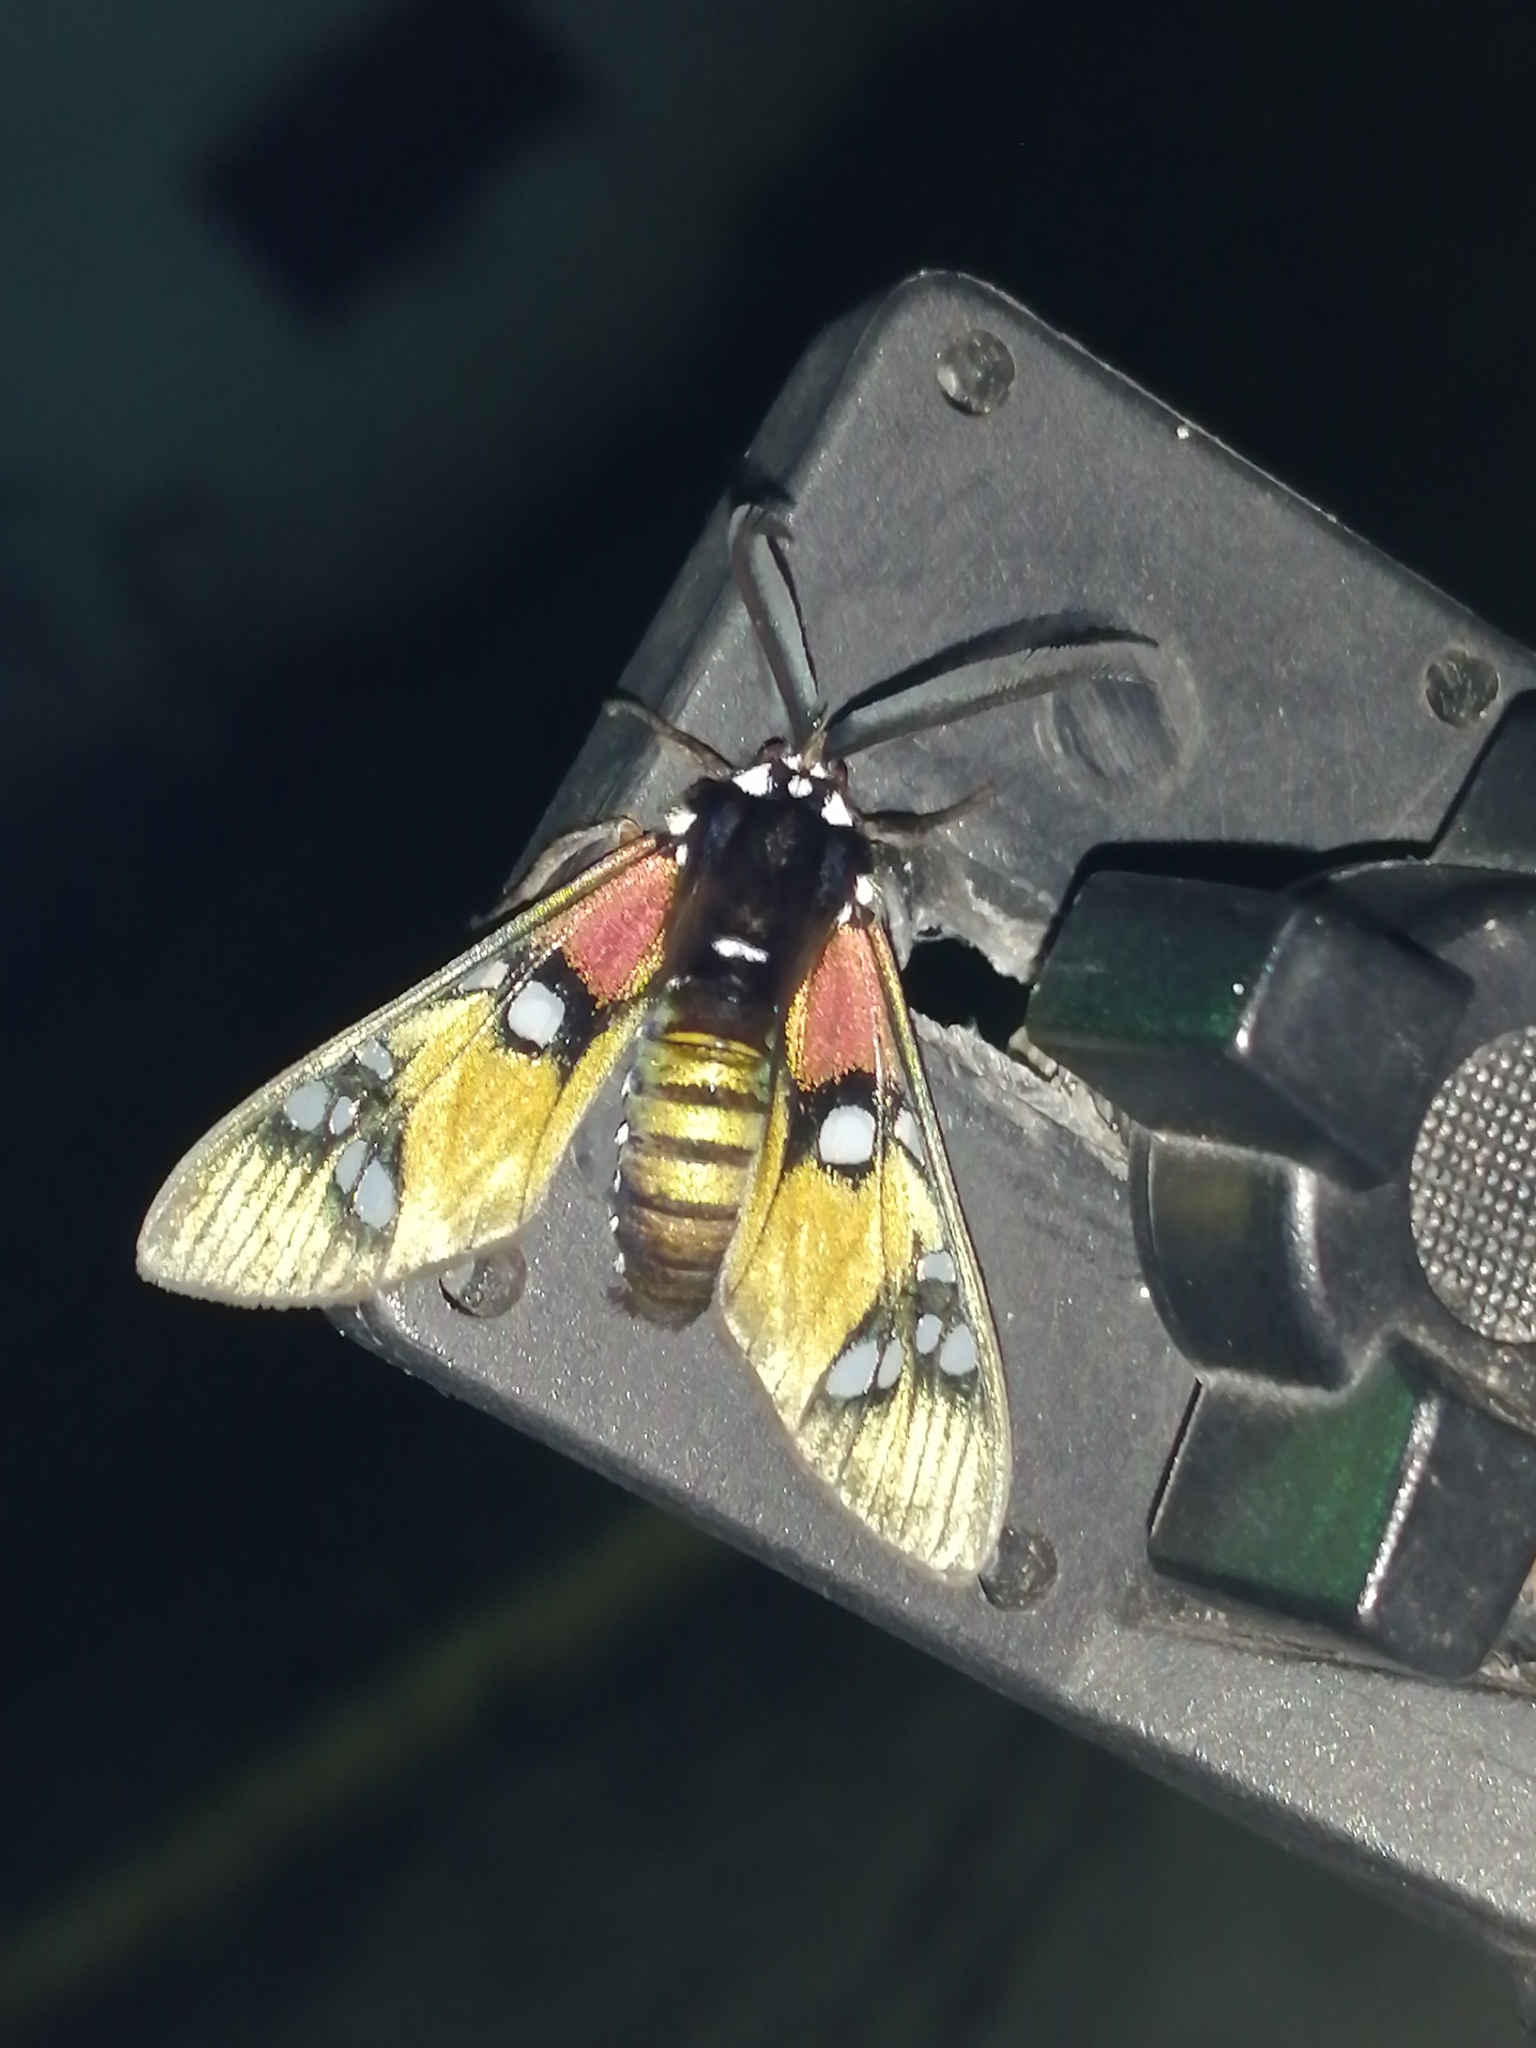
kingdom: Animalia
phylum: Arthropoda
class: Insecta
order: Lepidoptera
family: Erebidae
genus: Chrysocale
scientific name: Chrysocale principalis
